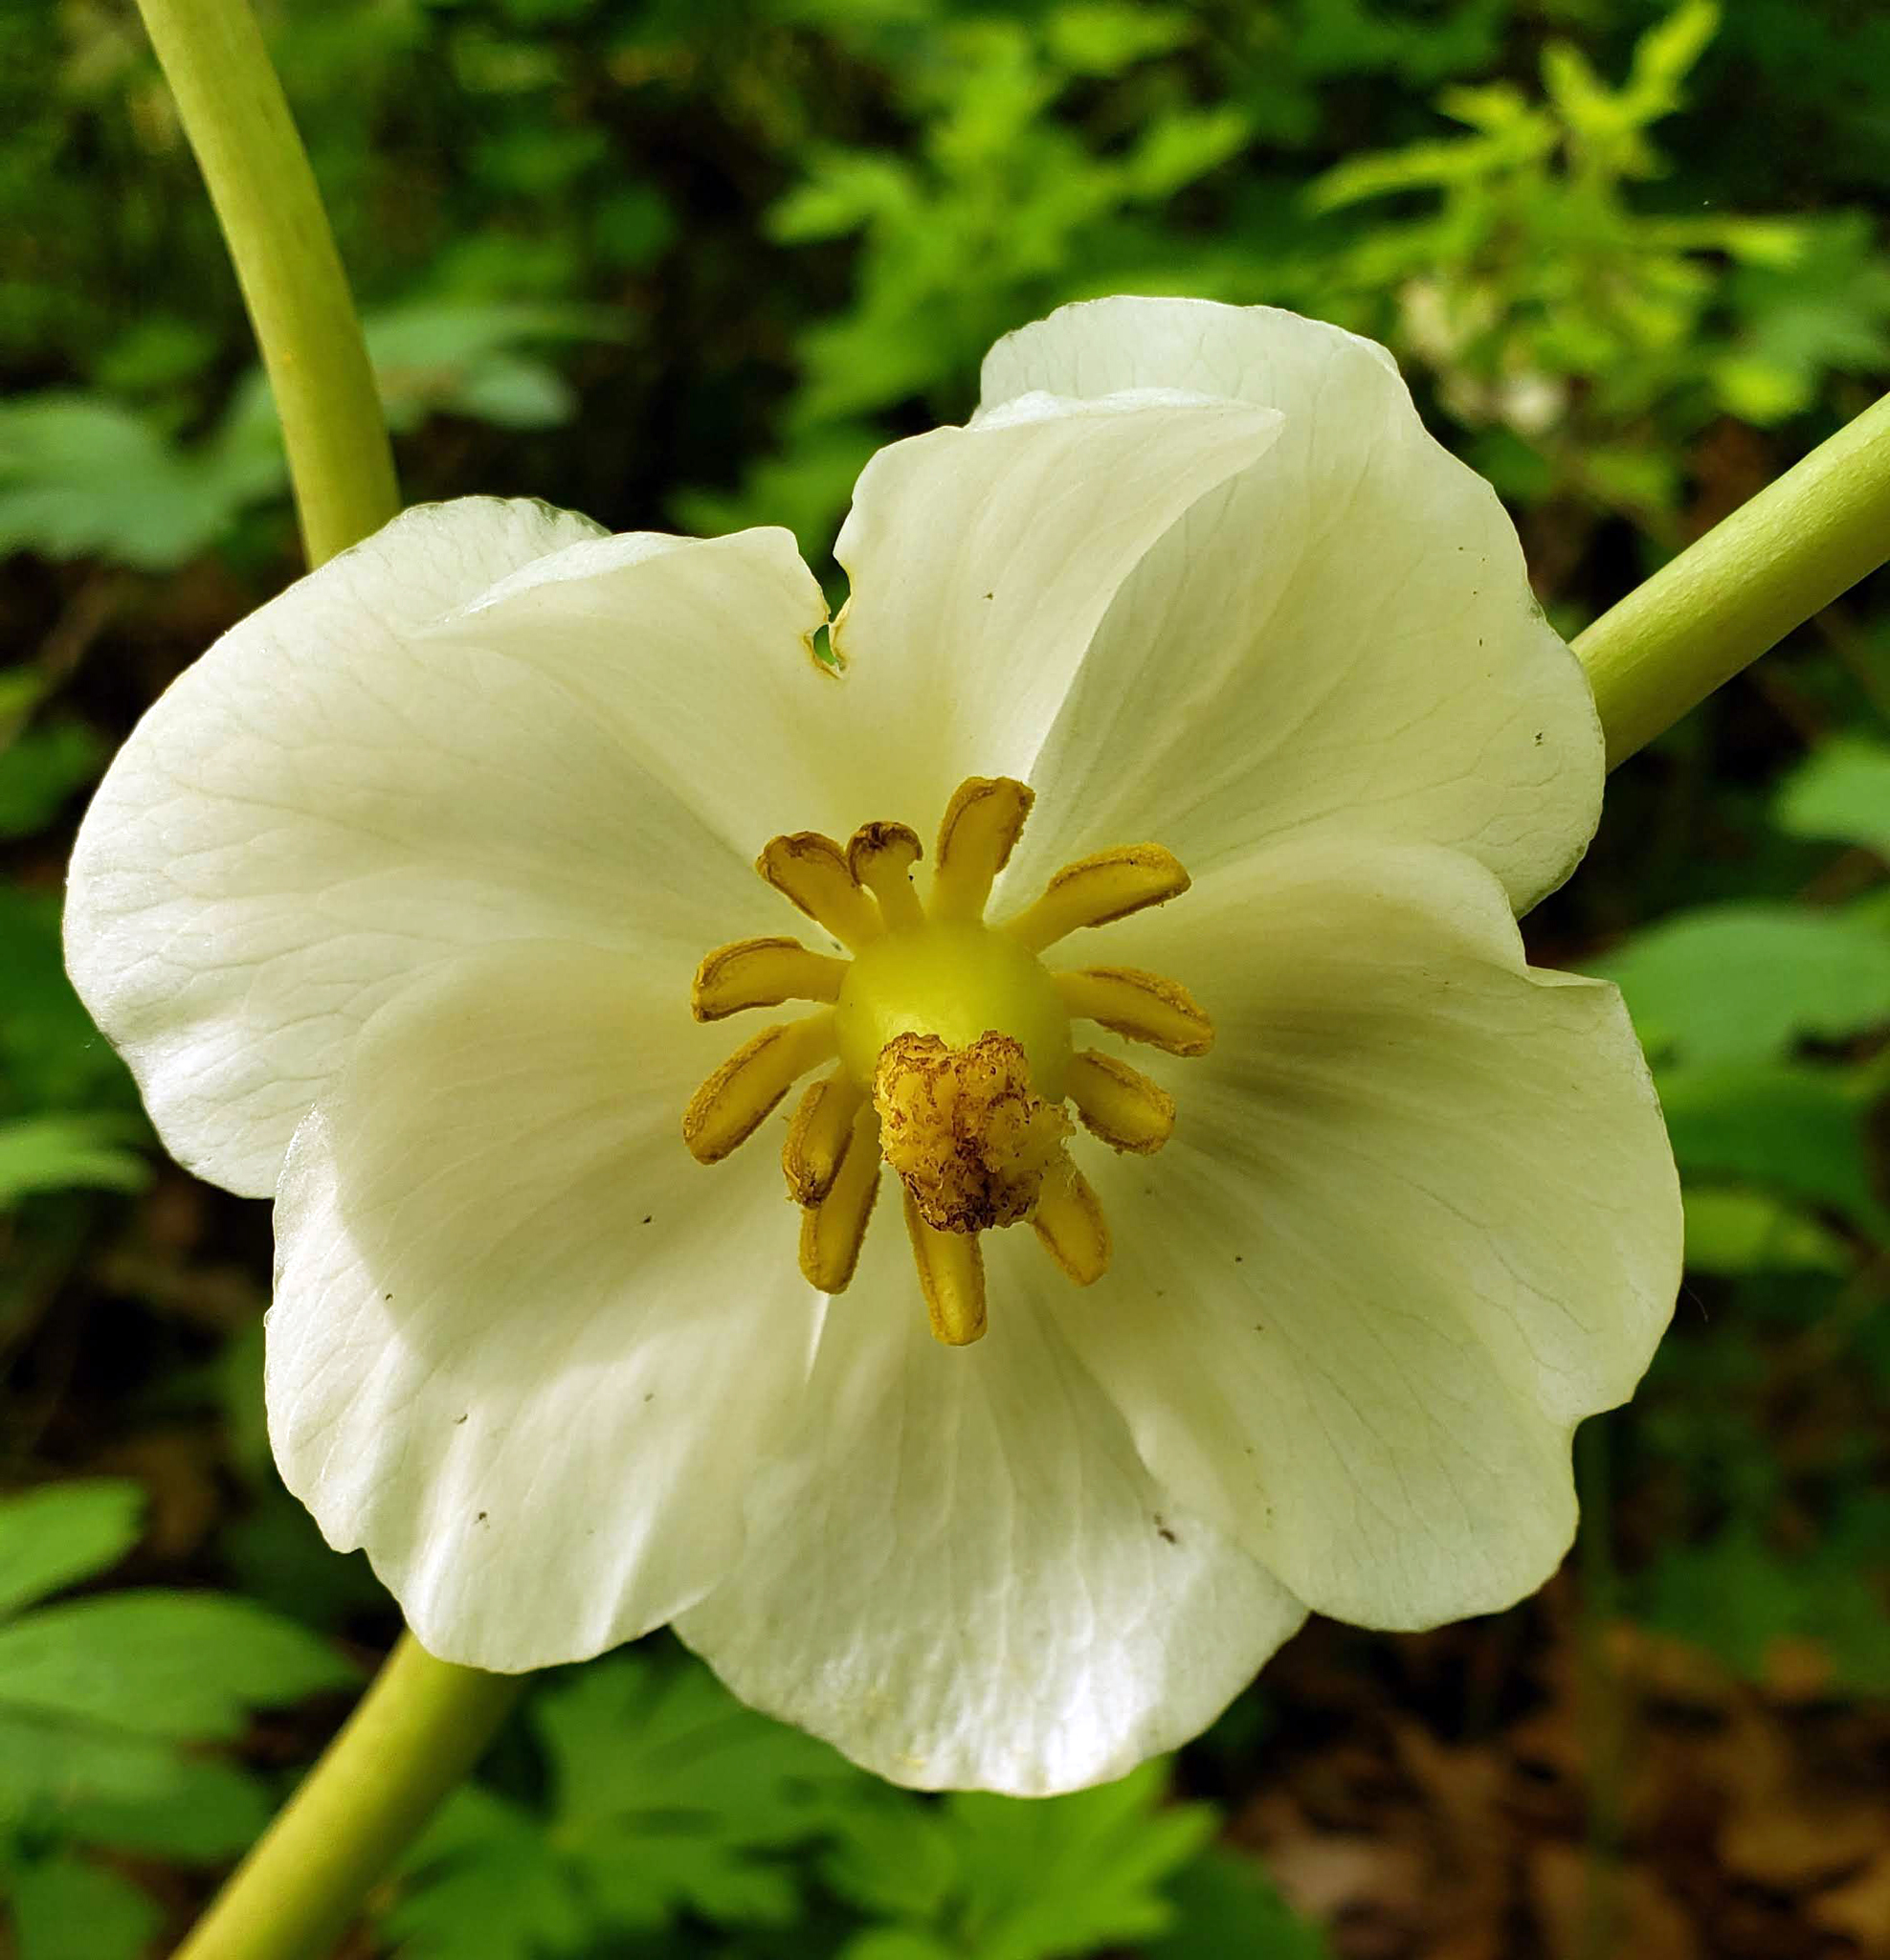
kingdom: Plantae
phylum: Tracheophyta
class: Magnoliopsida
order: Ranunculales
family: Berberidaceae
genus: Podophyllum
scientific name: Podophyllum peltatum
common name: Wild mandrake
